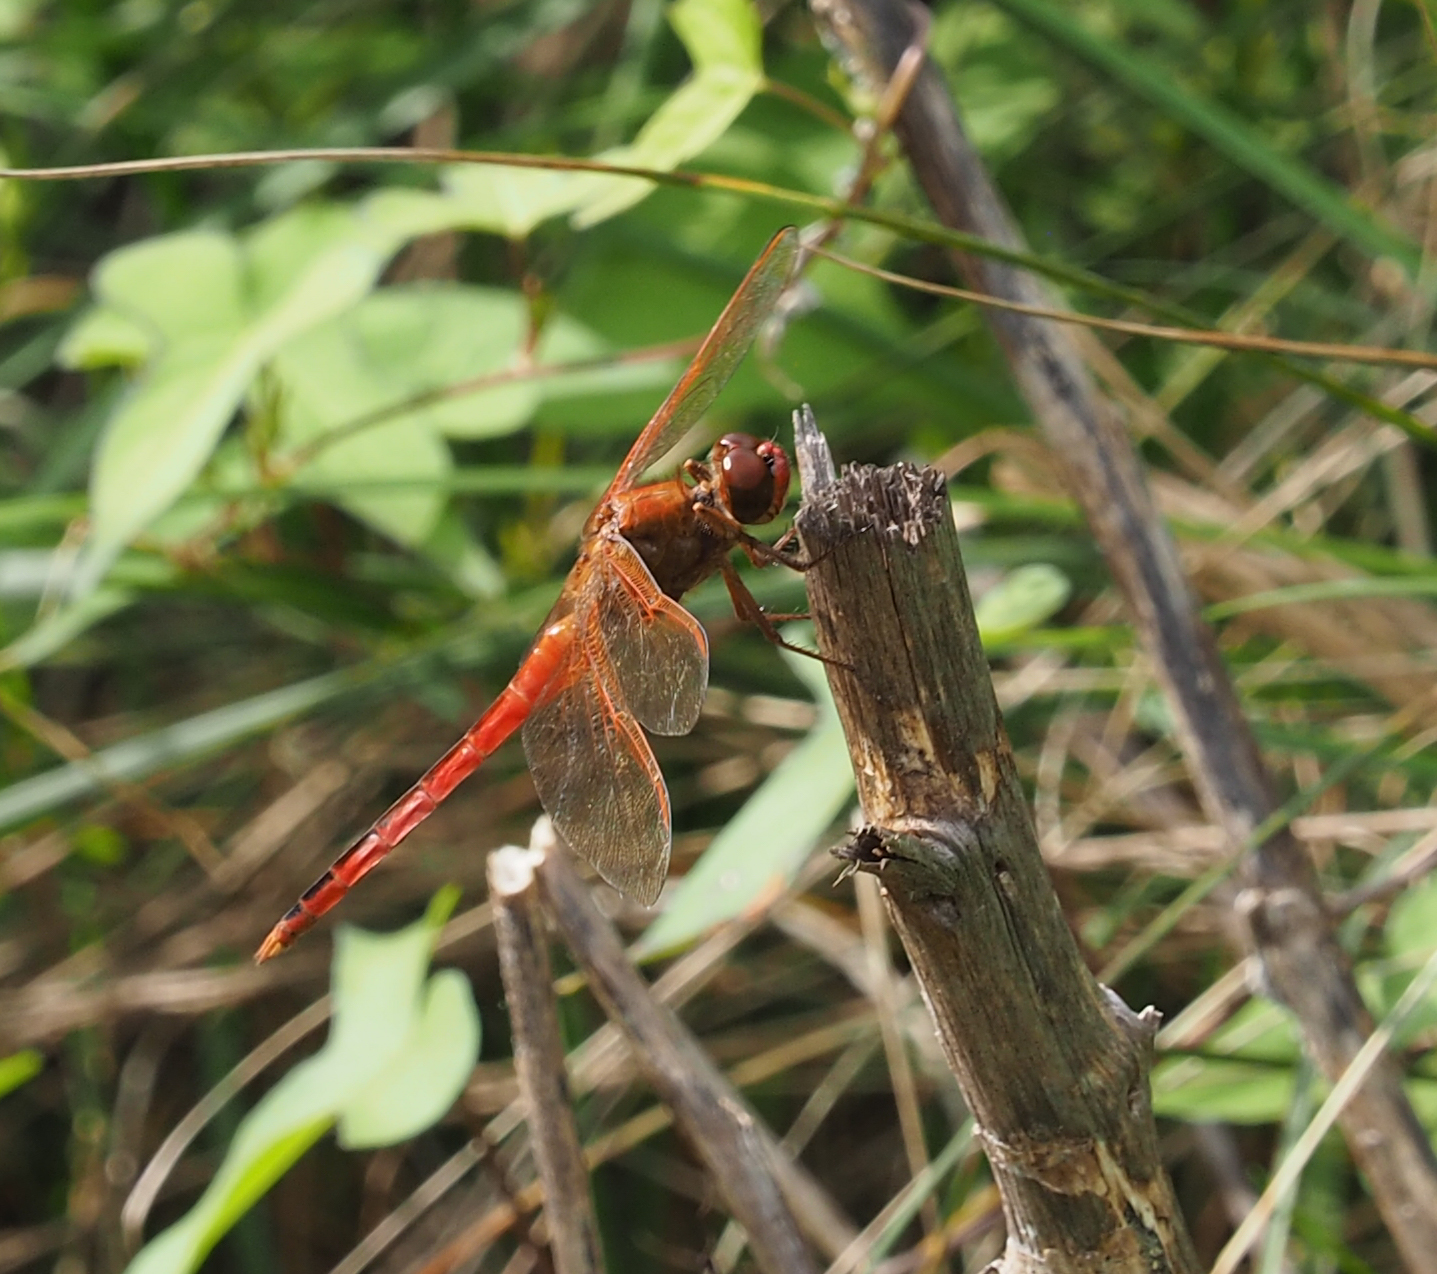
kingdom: Animalia
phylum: Arthropoda
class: Insecta
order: Odonata
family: Libellulidae
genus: Libellula
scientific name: Libellula needhami
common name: Needham's skimmer
